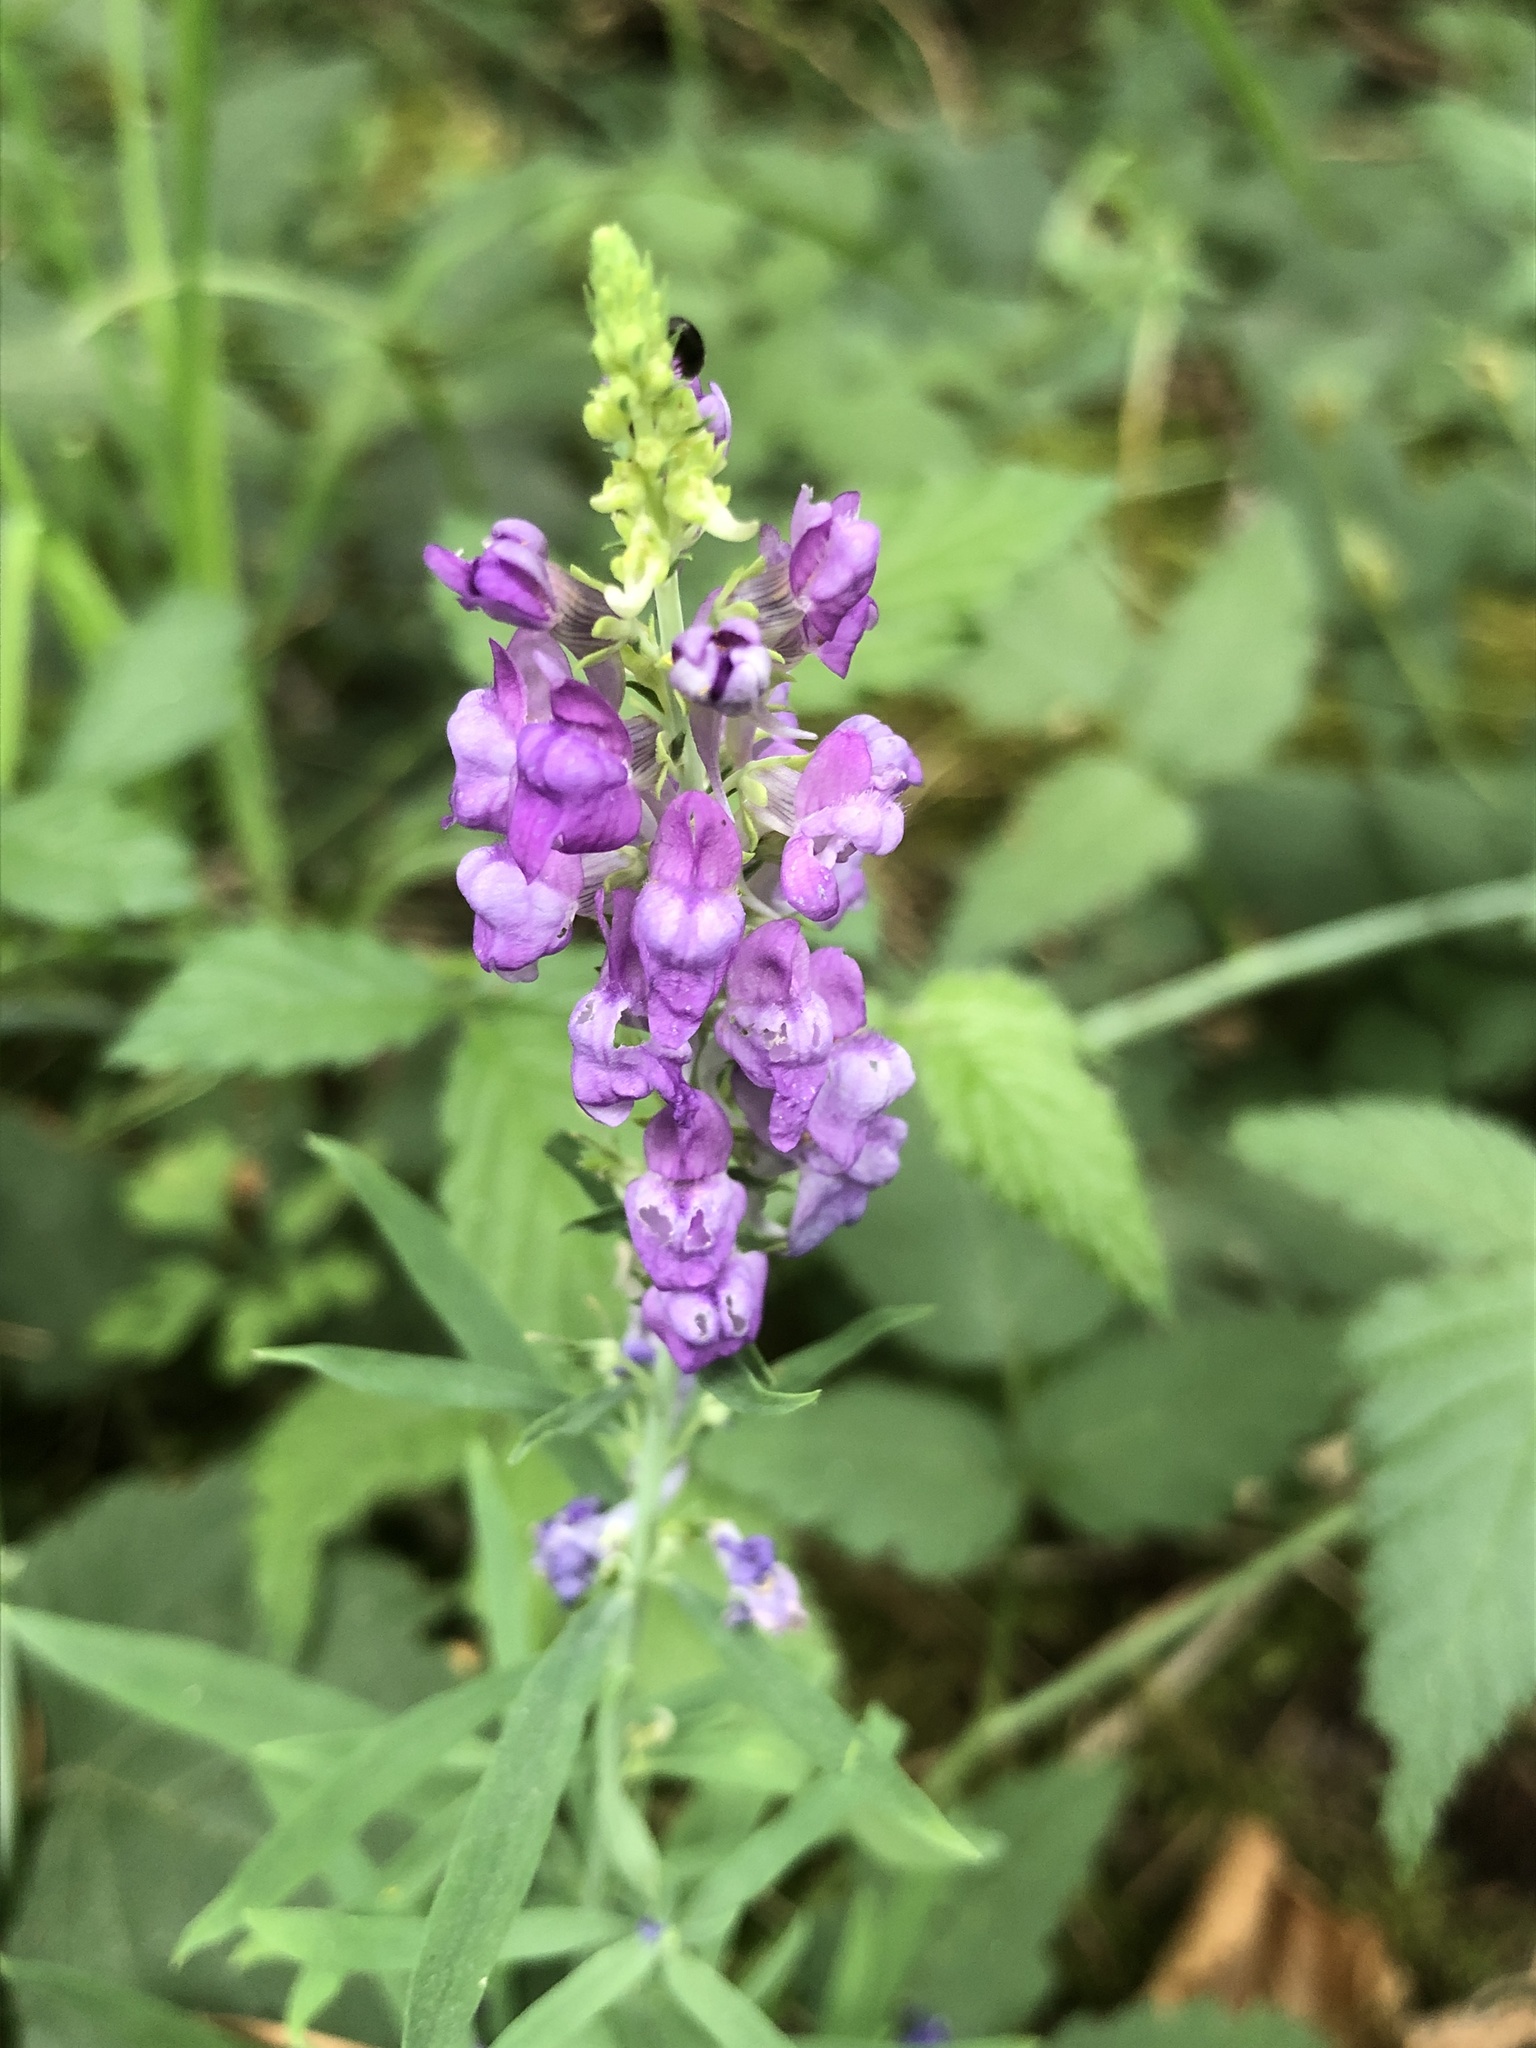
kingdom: Plantae
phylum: Tracheophyta
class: Magnoliopsida
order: Lamiales
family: Plantaginaceae
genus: Linaria
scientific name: Linaria purpurea
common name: Purple toadflax
